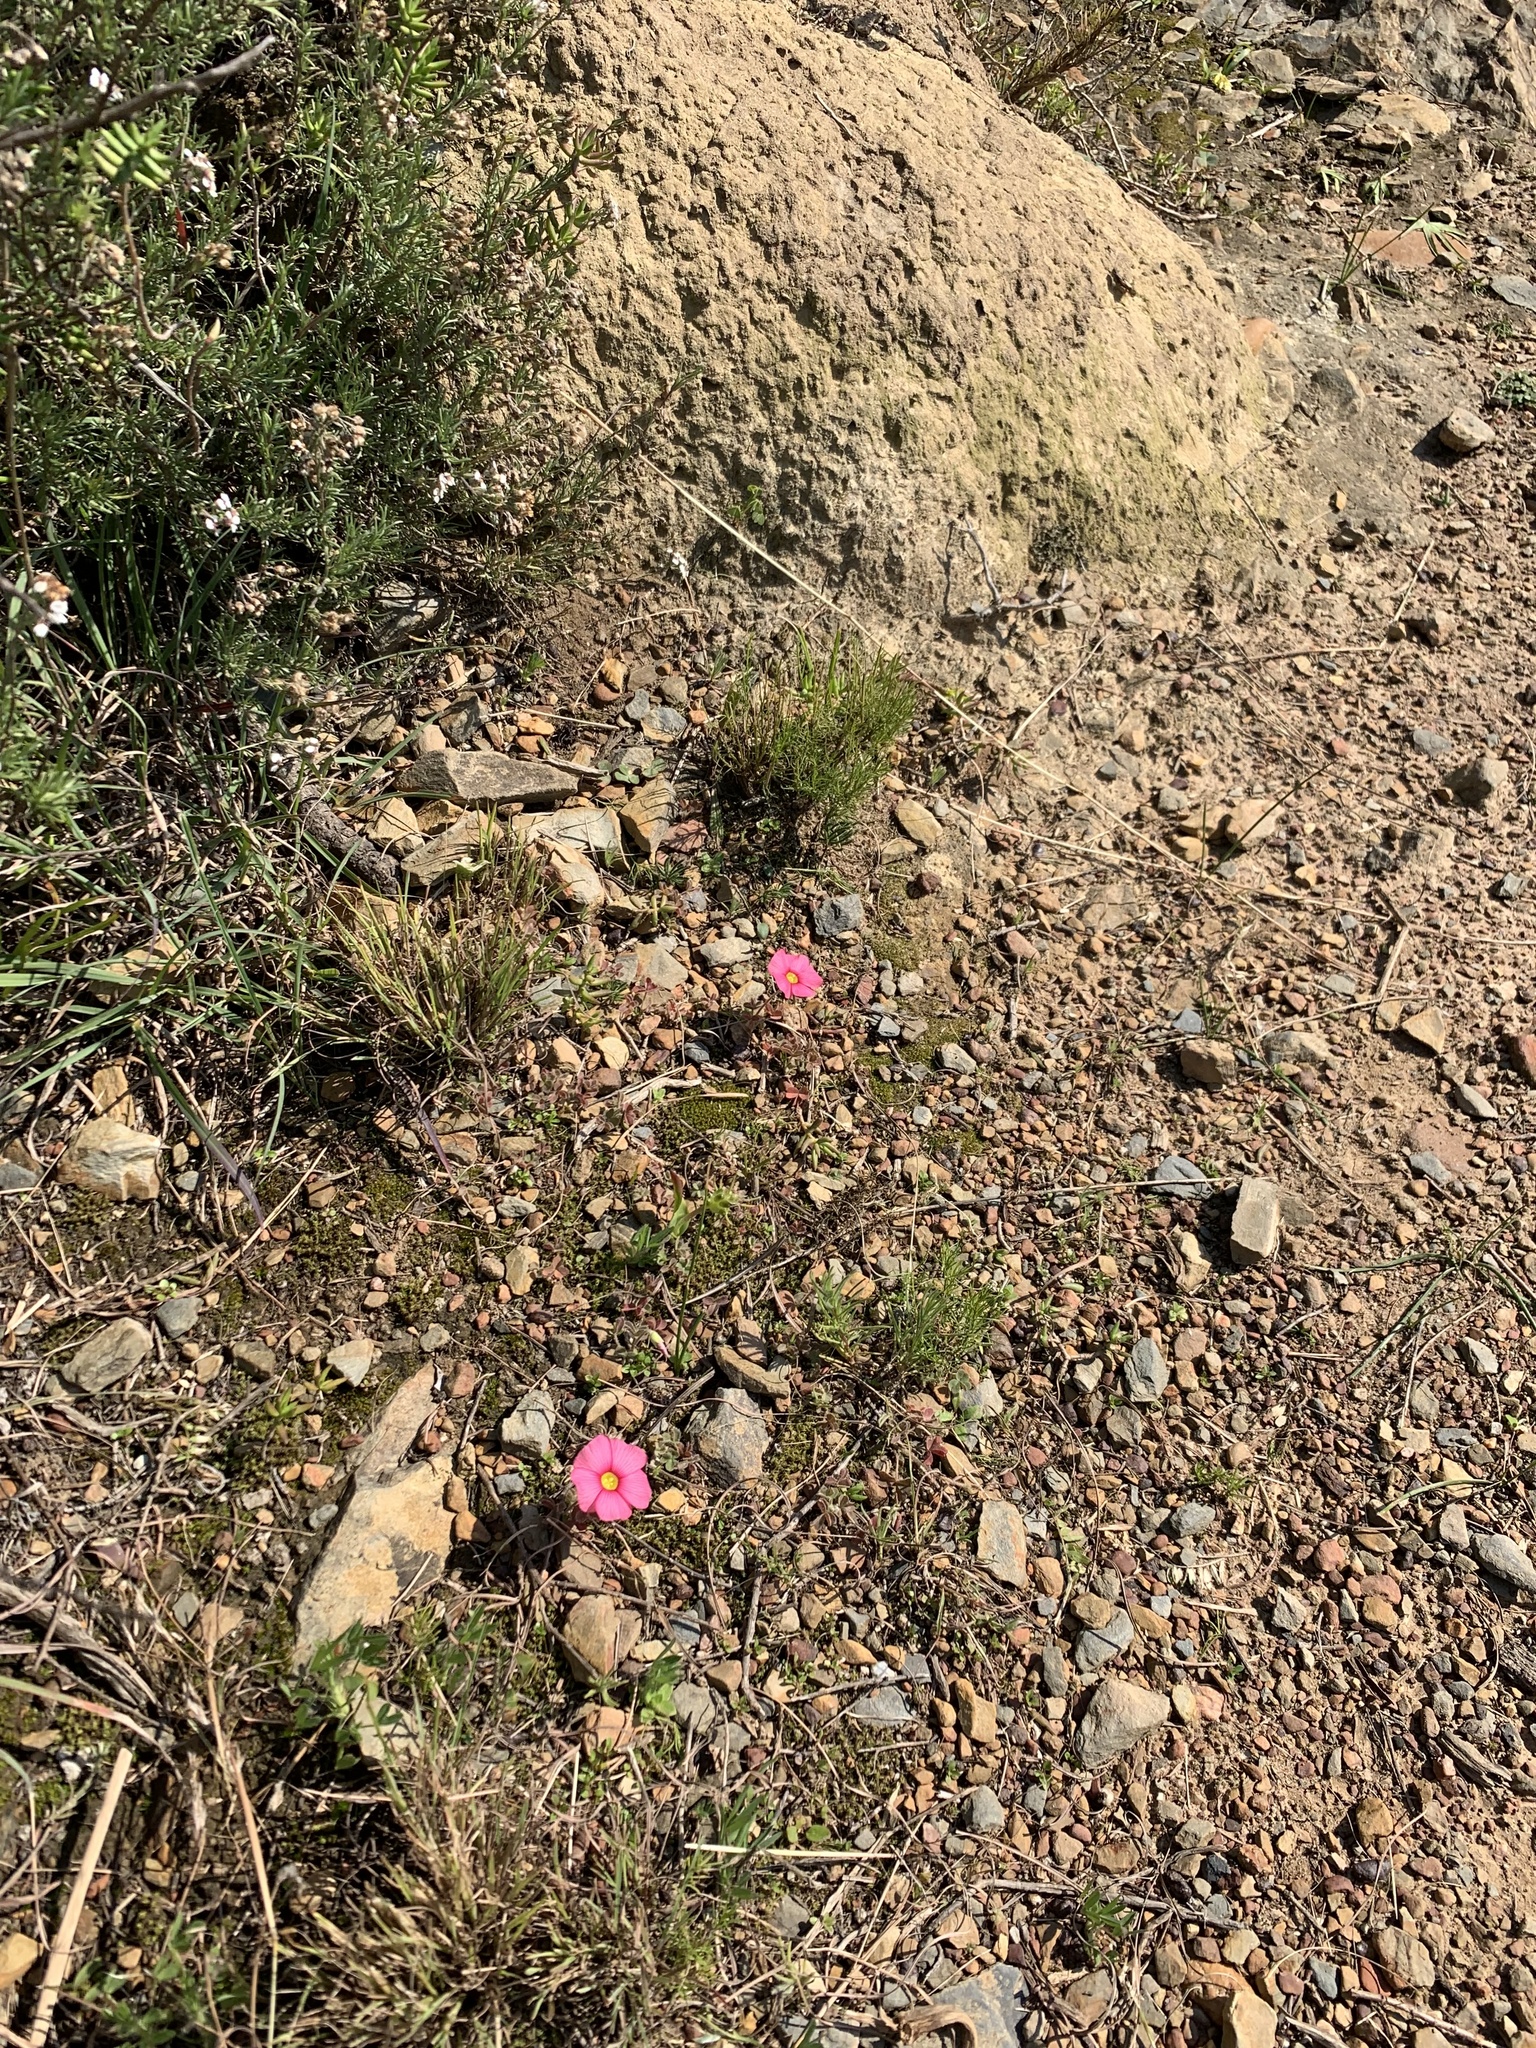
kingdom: Plantae
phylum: Tracheophyta
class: Magnoliopsida
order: Oxalidales
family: Oxalidaceae
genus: Oxalis
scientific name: Oxalis obtusa
